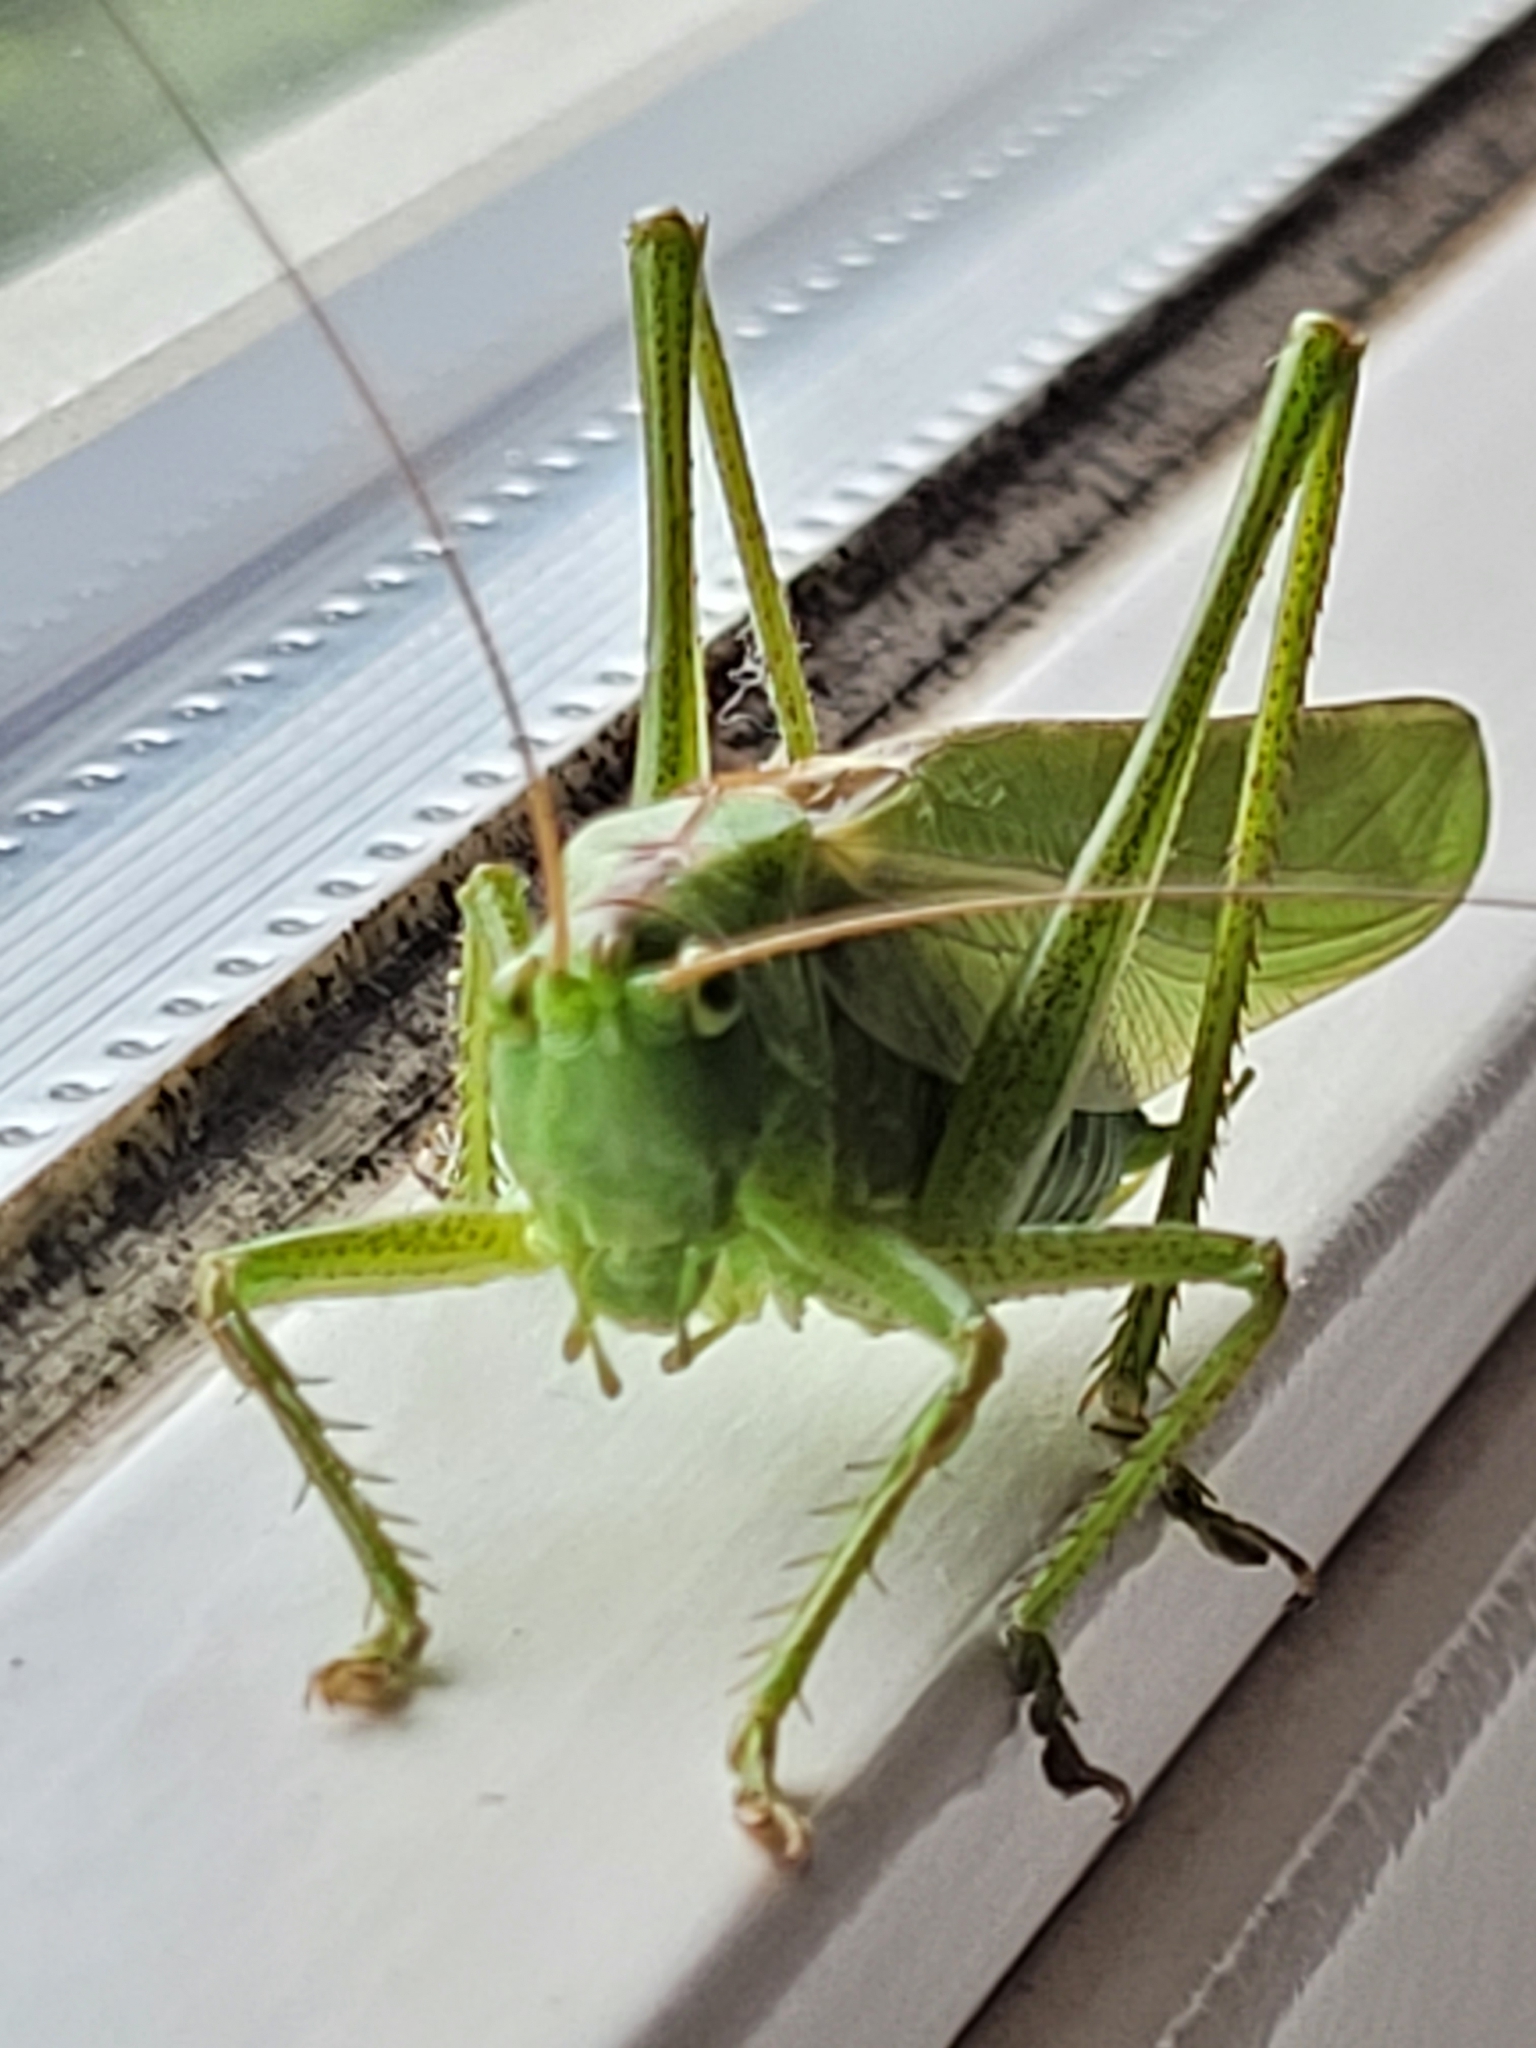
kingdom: Animalia
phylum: Arthropoda
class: Insecta
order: Orthoptera
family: Tettigoniidae
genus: Tettigonia
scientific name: Tettigonia viridissima
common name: Great green bush-cricket
